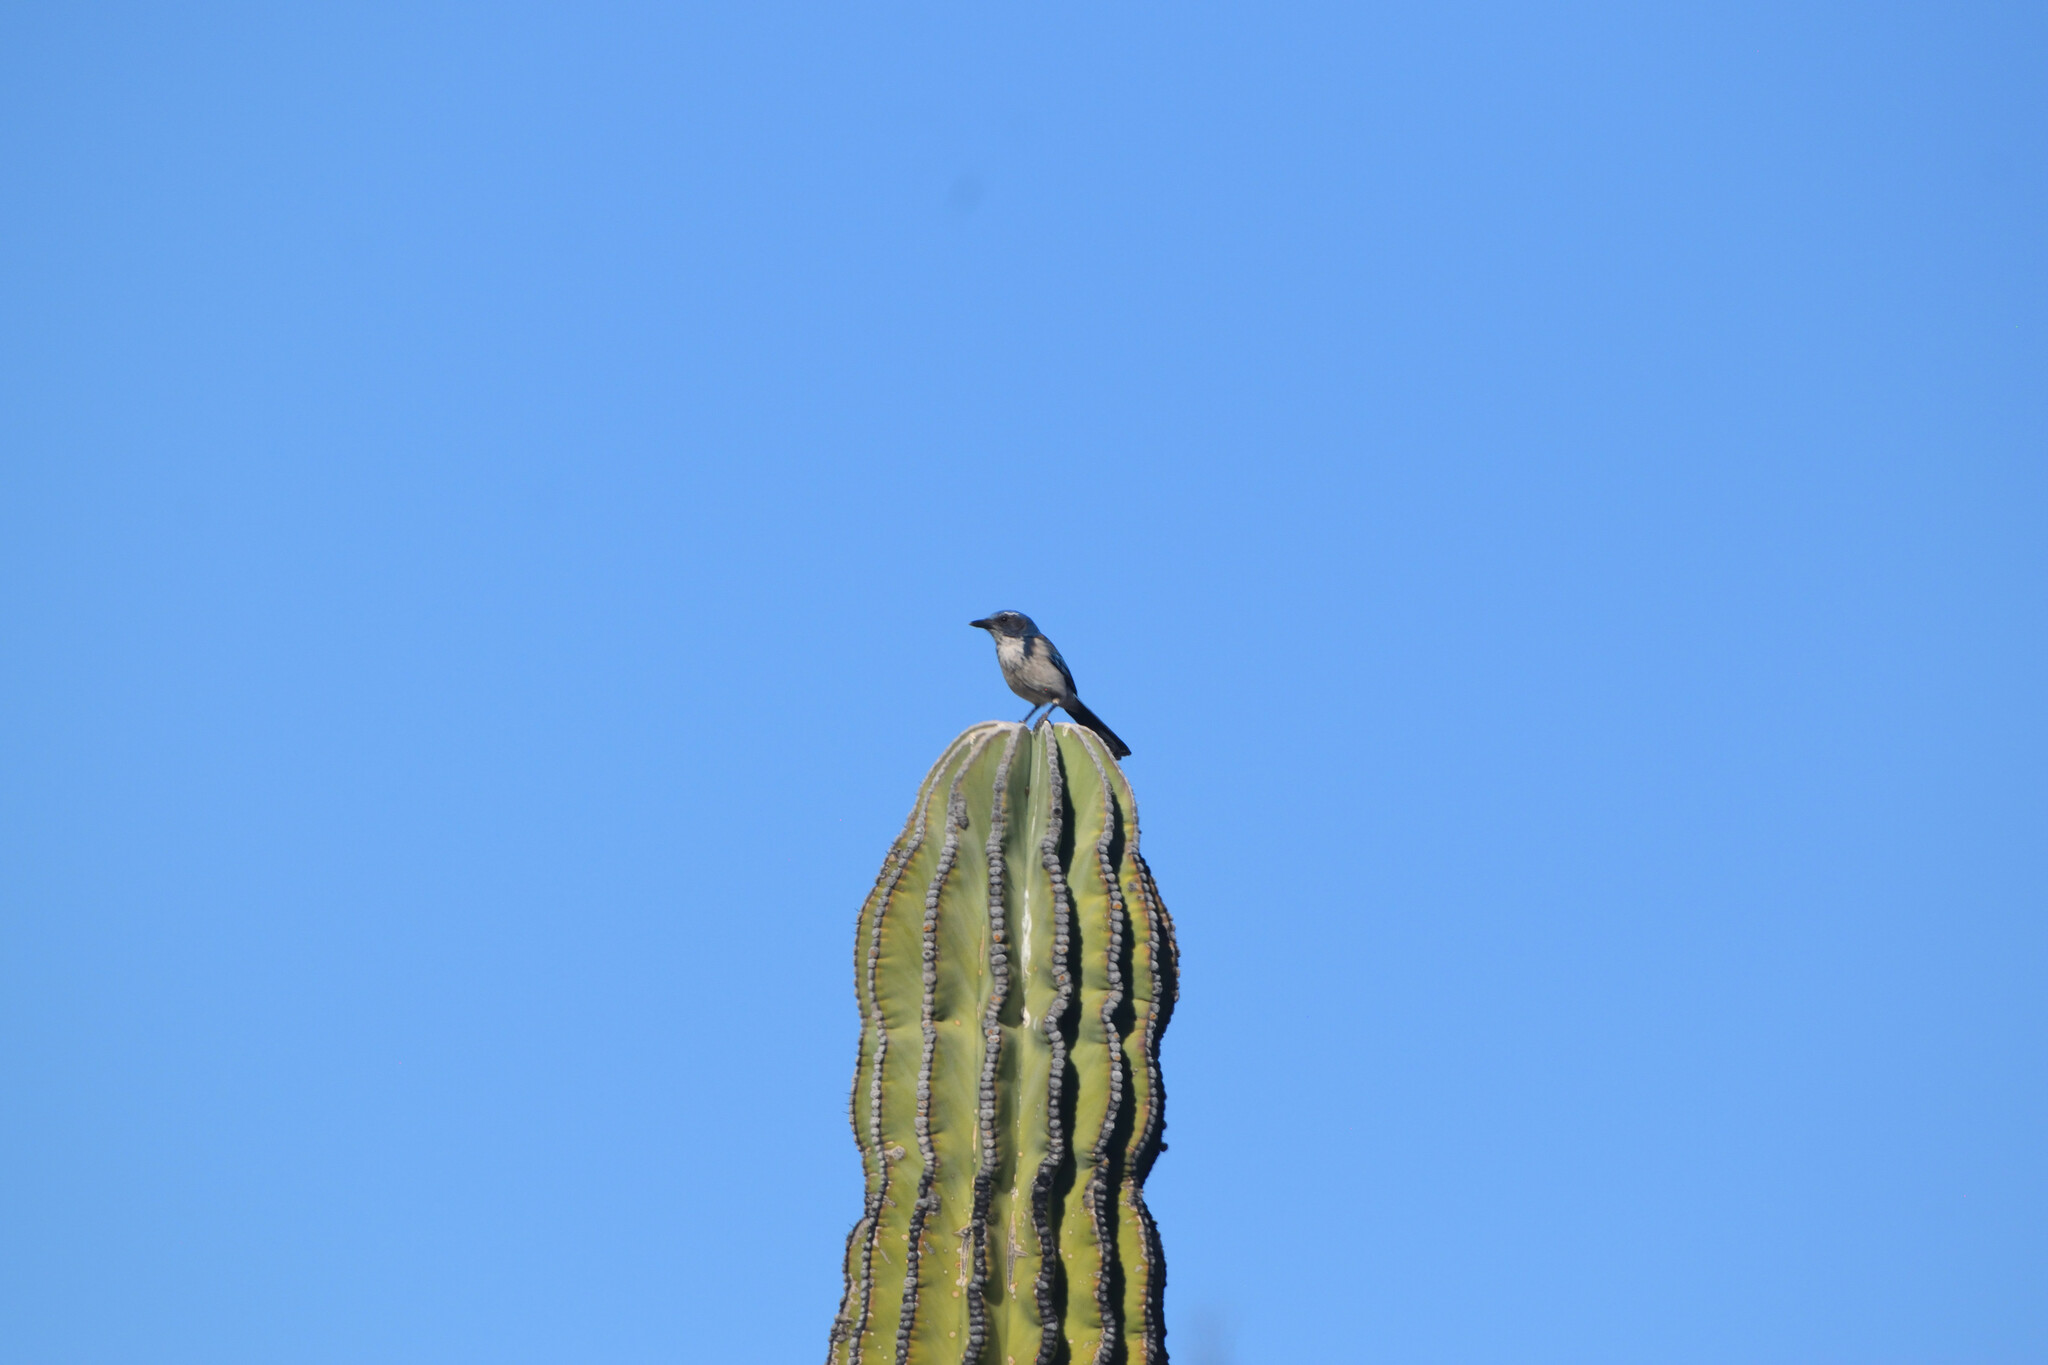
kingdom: Animalia
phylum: Chordata
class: Aves
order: Passeriformes
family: Corvidae
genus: Aphelocoma
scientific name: Aphelocoma californica
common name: California scrub-jay
